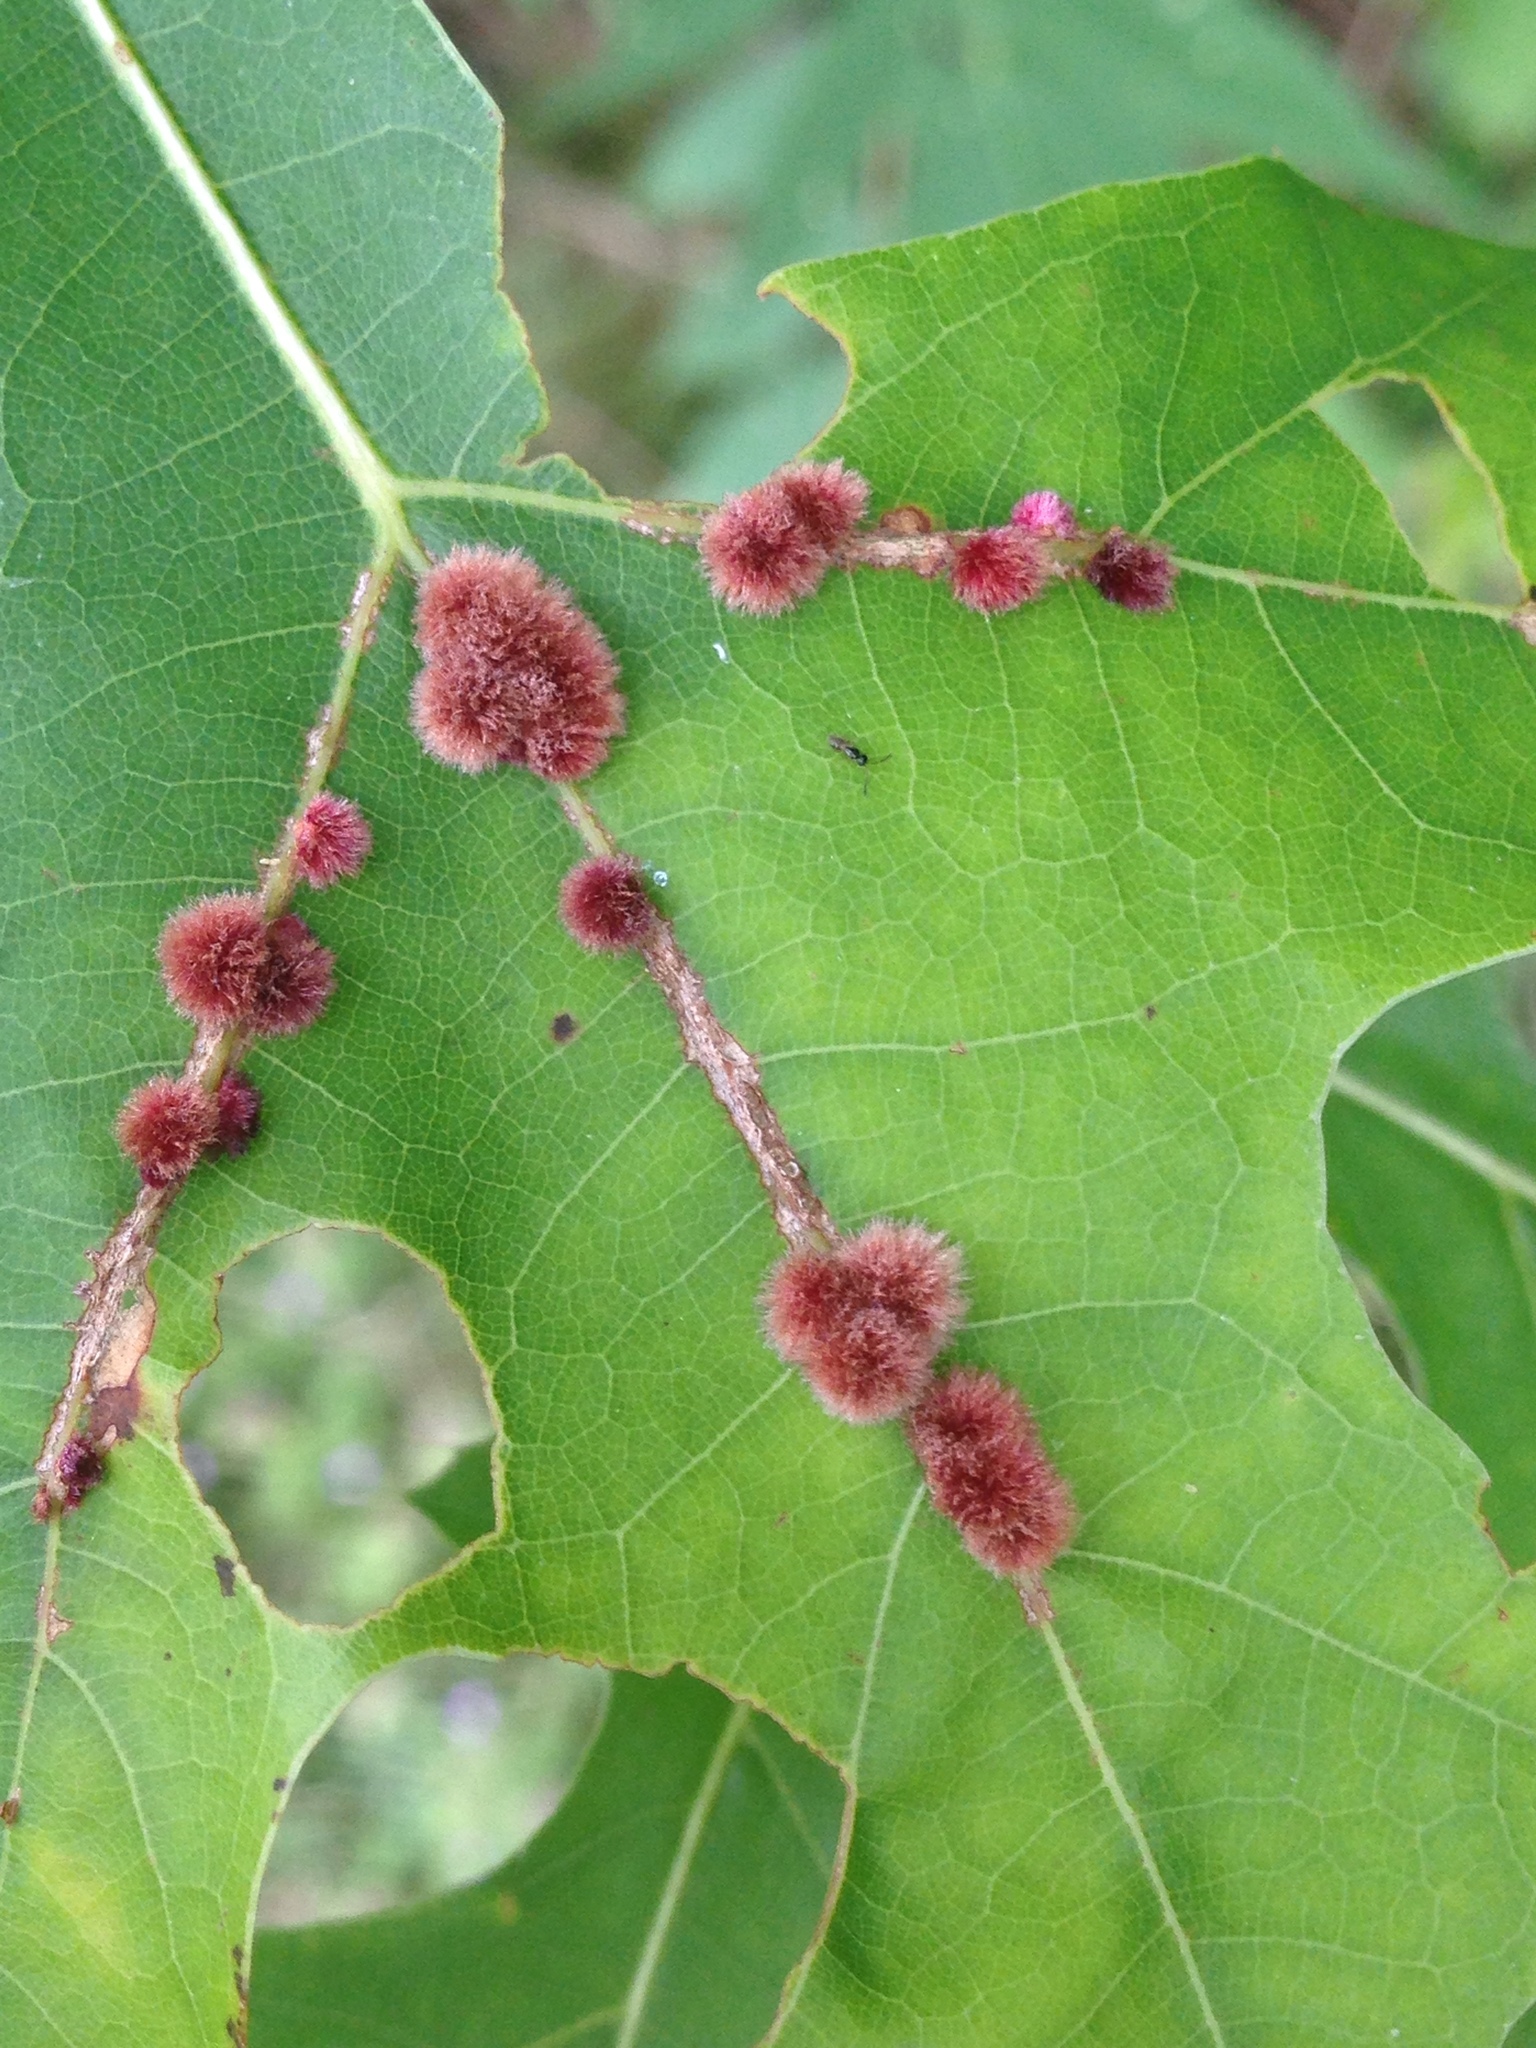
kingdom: Animalia
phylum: Arthropoda
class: Insecta
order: Hymenoptera
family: Cynipidae
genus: Callirhytis
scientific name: Callirhytis
